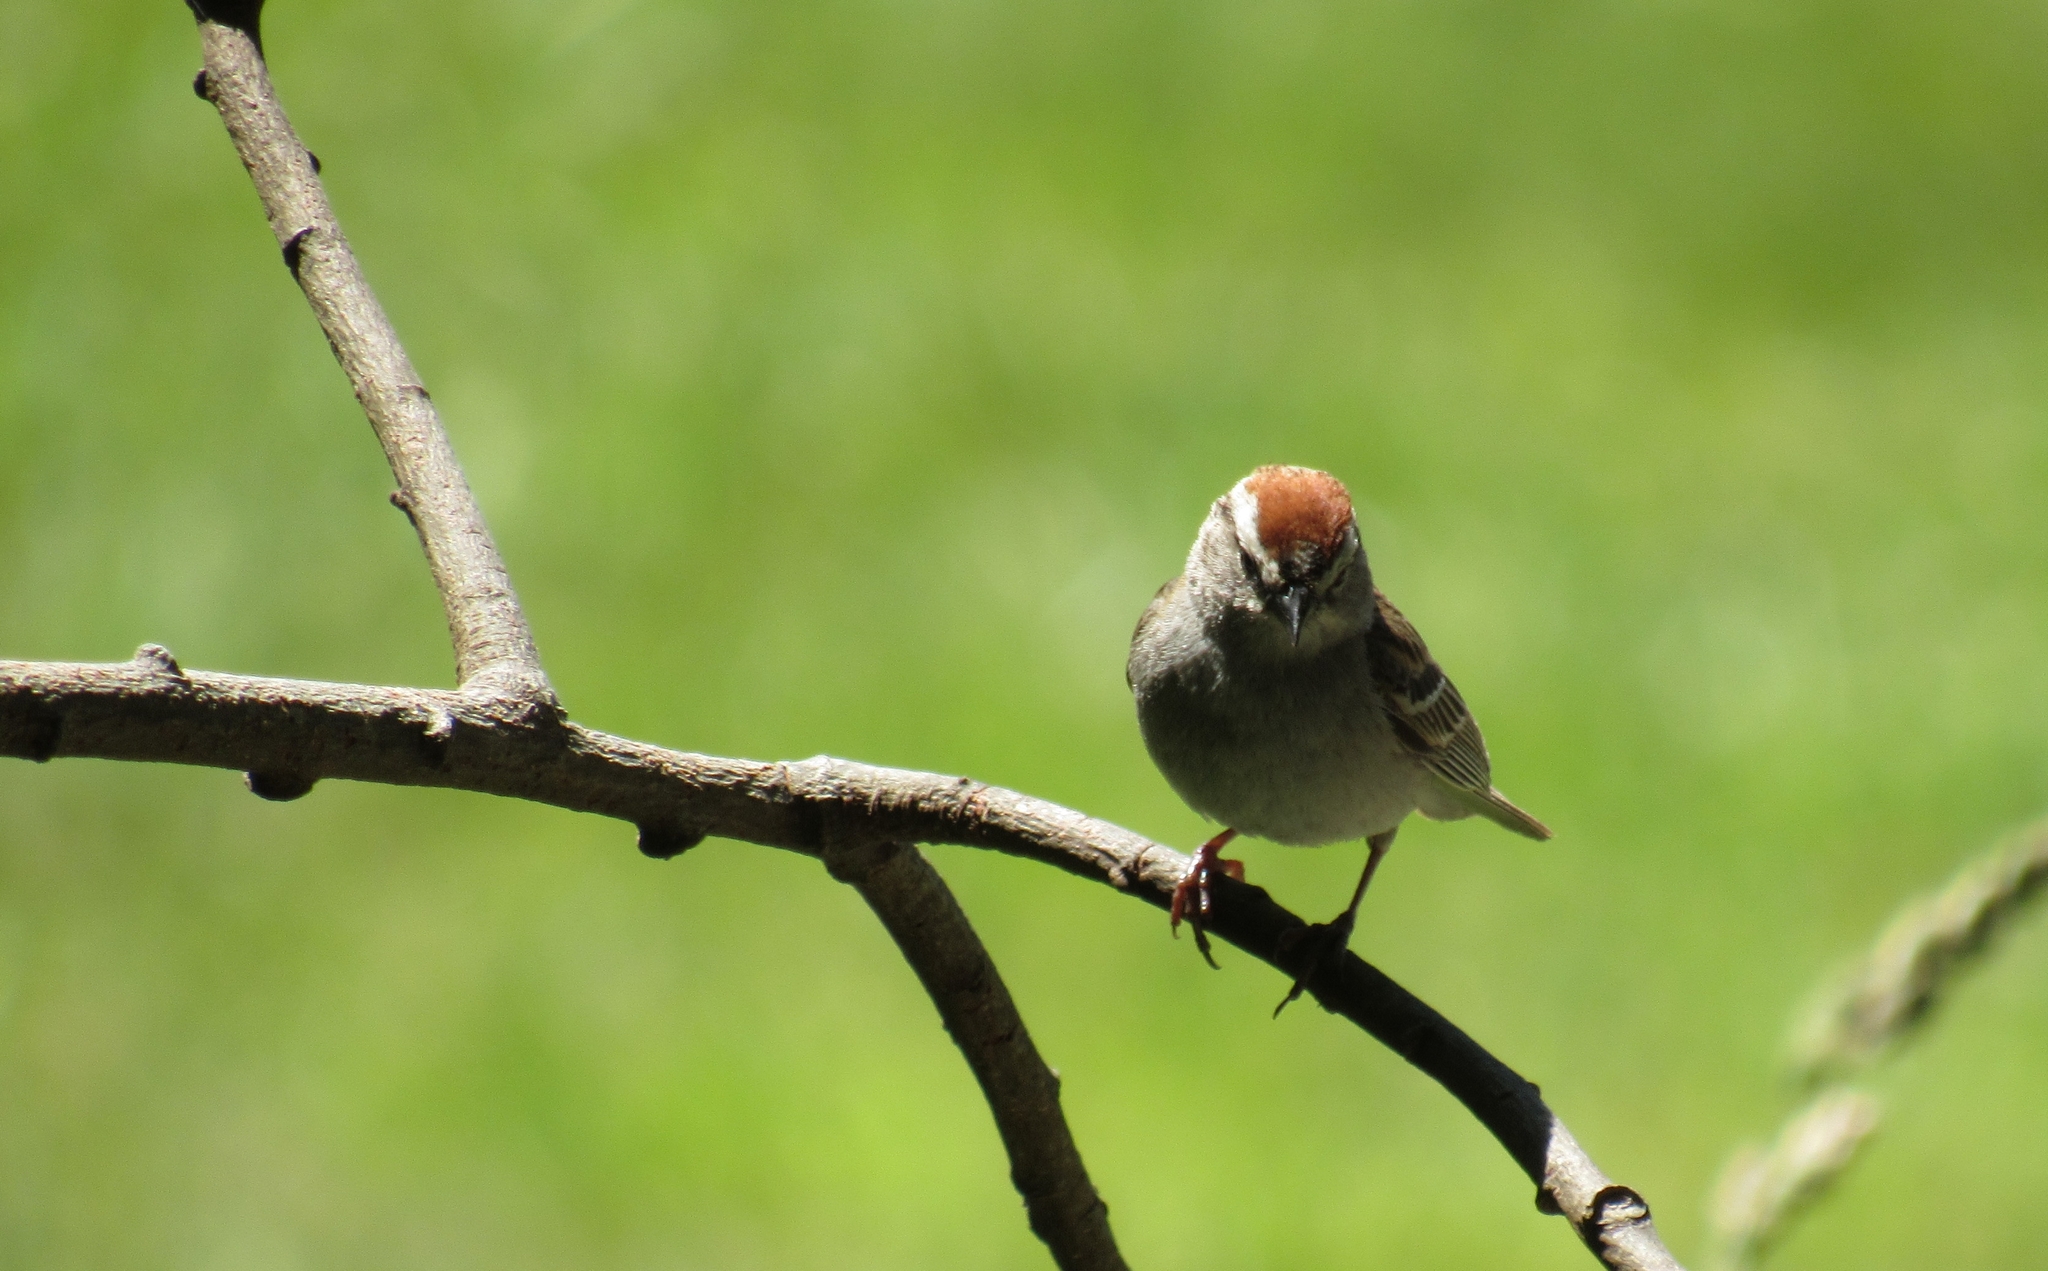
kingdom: Animalia
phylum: Chordata
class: Aves
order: Passeriformes
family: Passerellidae
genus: Spizella
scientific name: Spizella passerina
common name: Chipping sparrow
